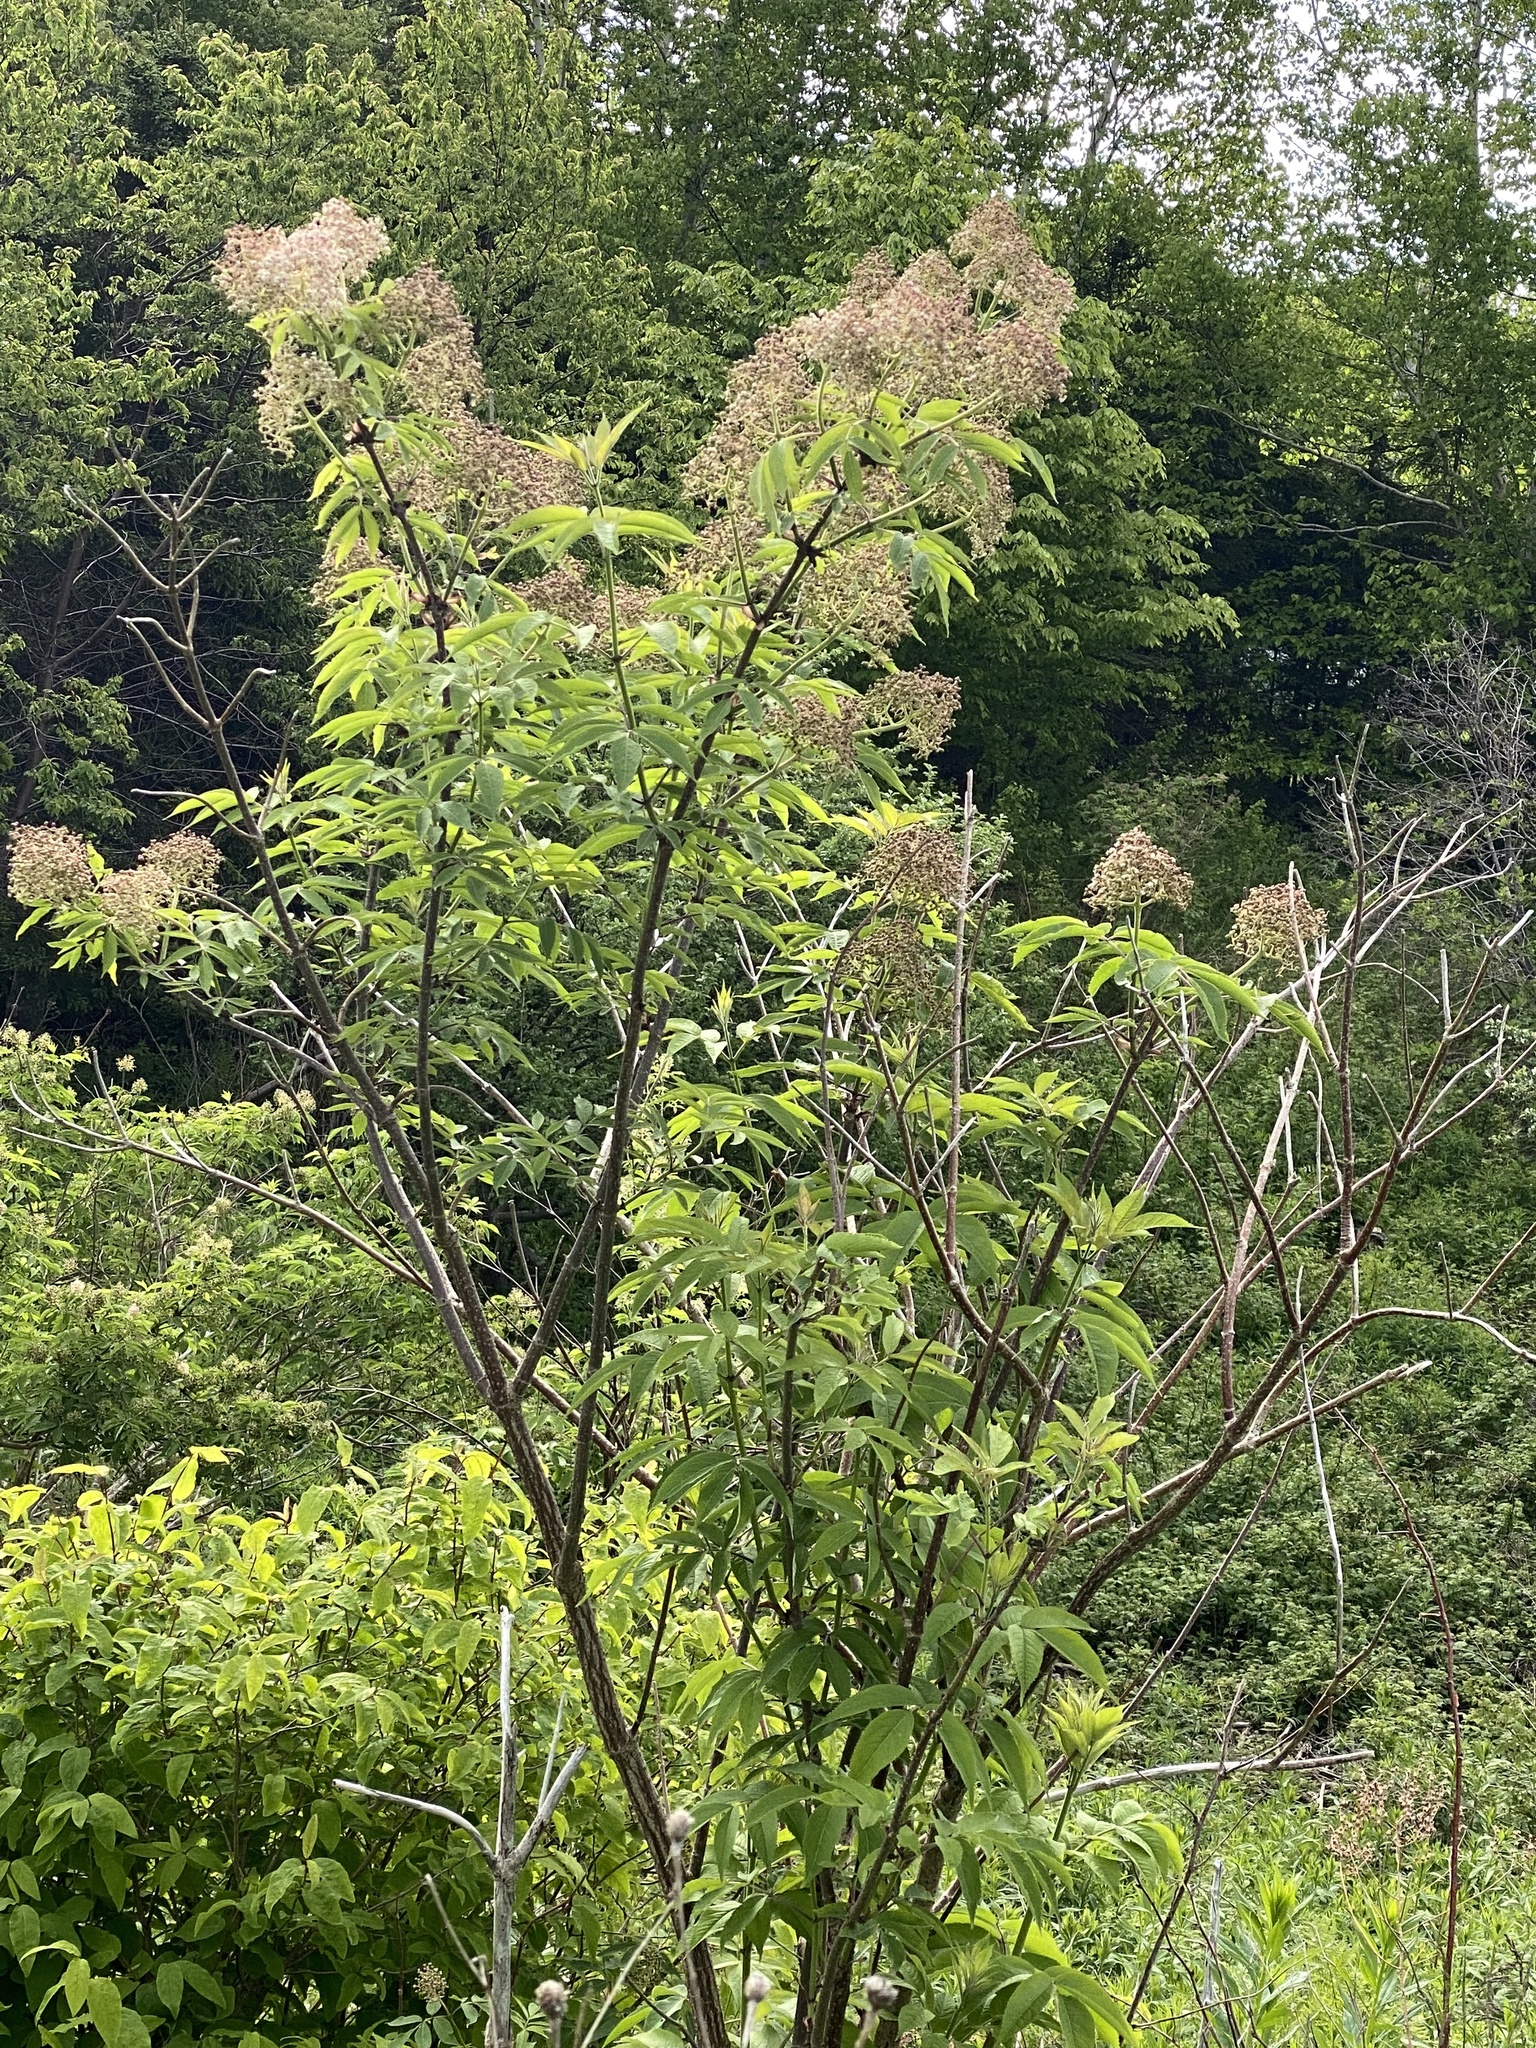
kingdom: Plantae
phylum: Tracheophyta
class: Magnoliopsida
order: Dipsacales
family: Viburnaceae
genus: Sambucus
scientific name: Sambucus racemosa
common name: Red-berried elder
